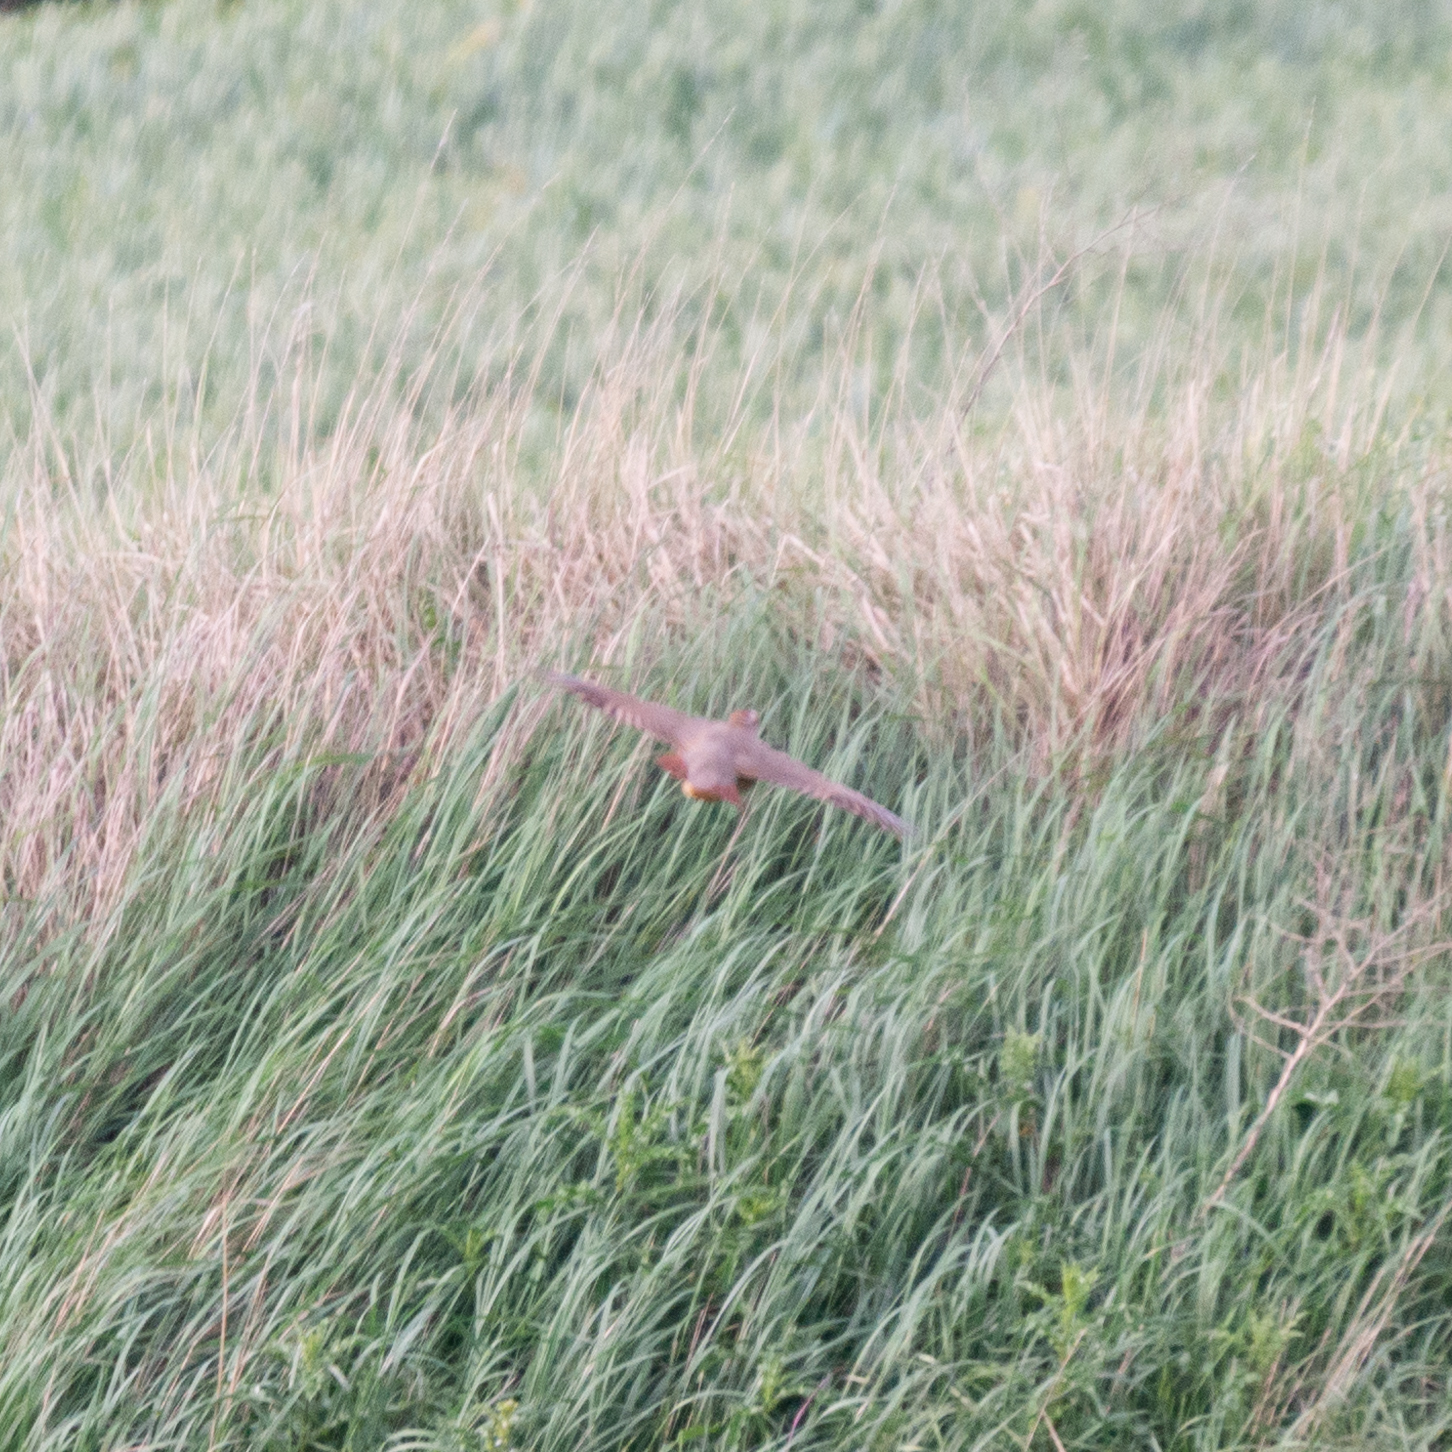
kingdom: Animalia
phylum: Chordata
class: Aves
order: Galliformes
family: Phasianidae
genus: Alectoris
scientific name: Alectoris rufa
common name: Red-legged partridge
